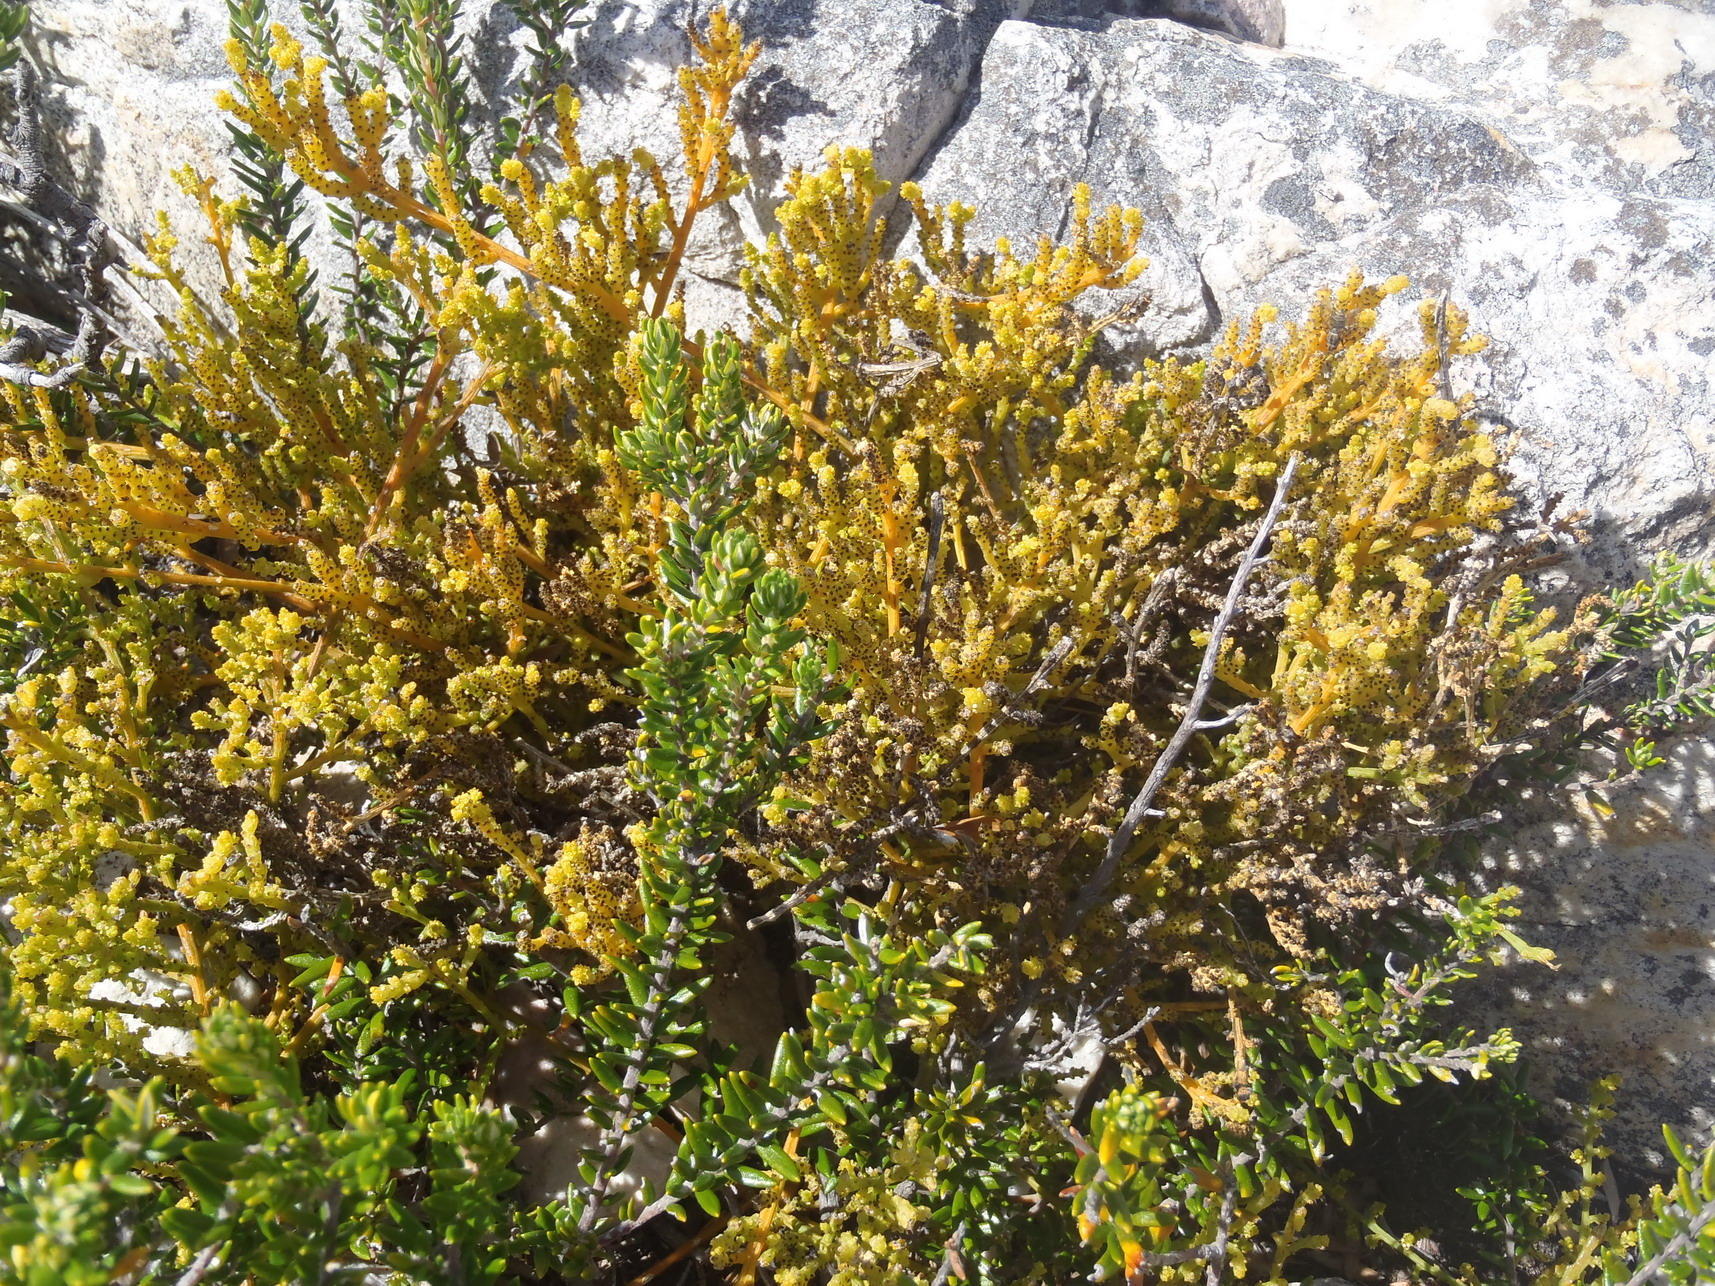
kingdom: Plantae
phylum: Tracheophyta
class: Magnoliopsida
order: Santalales
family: Thesiaceae
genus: Thesium
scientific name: Thesium fragile
